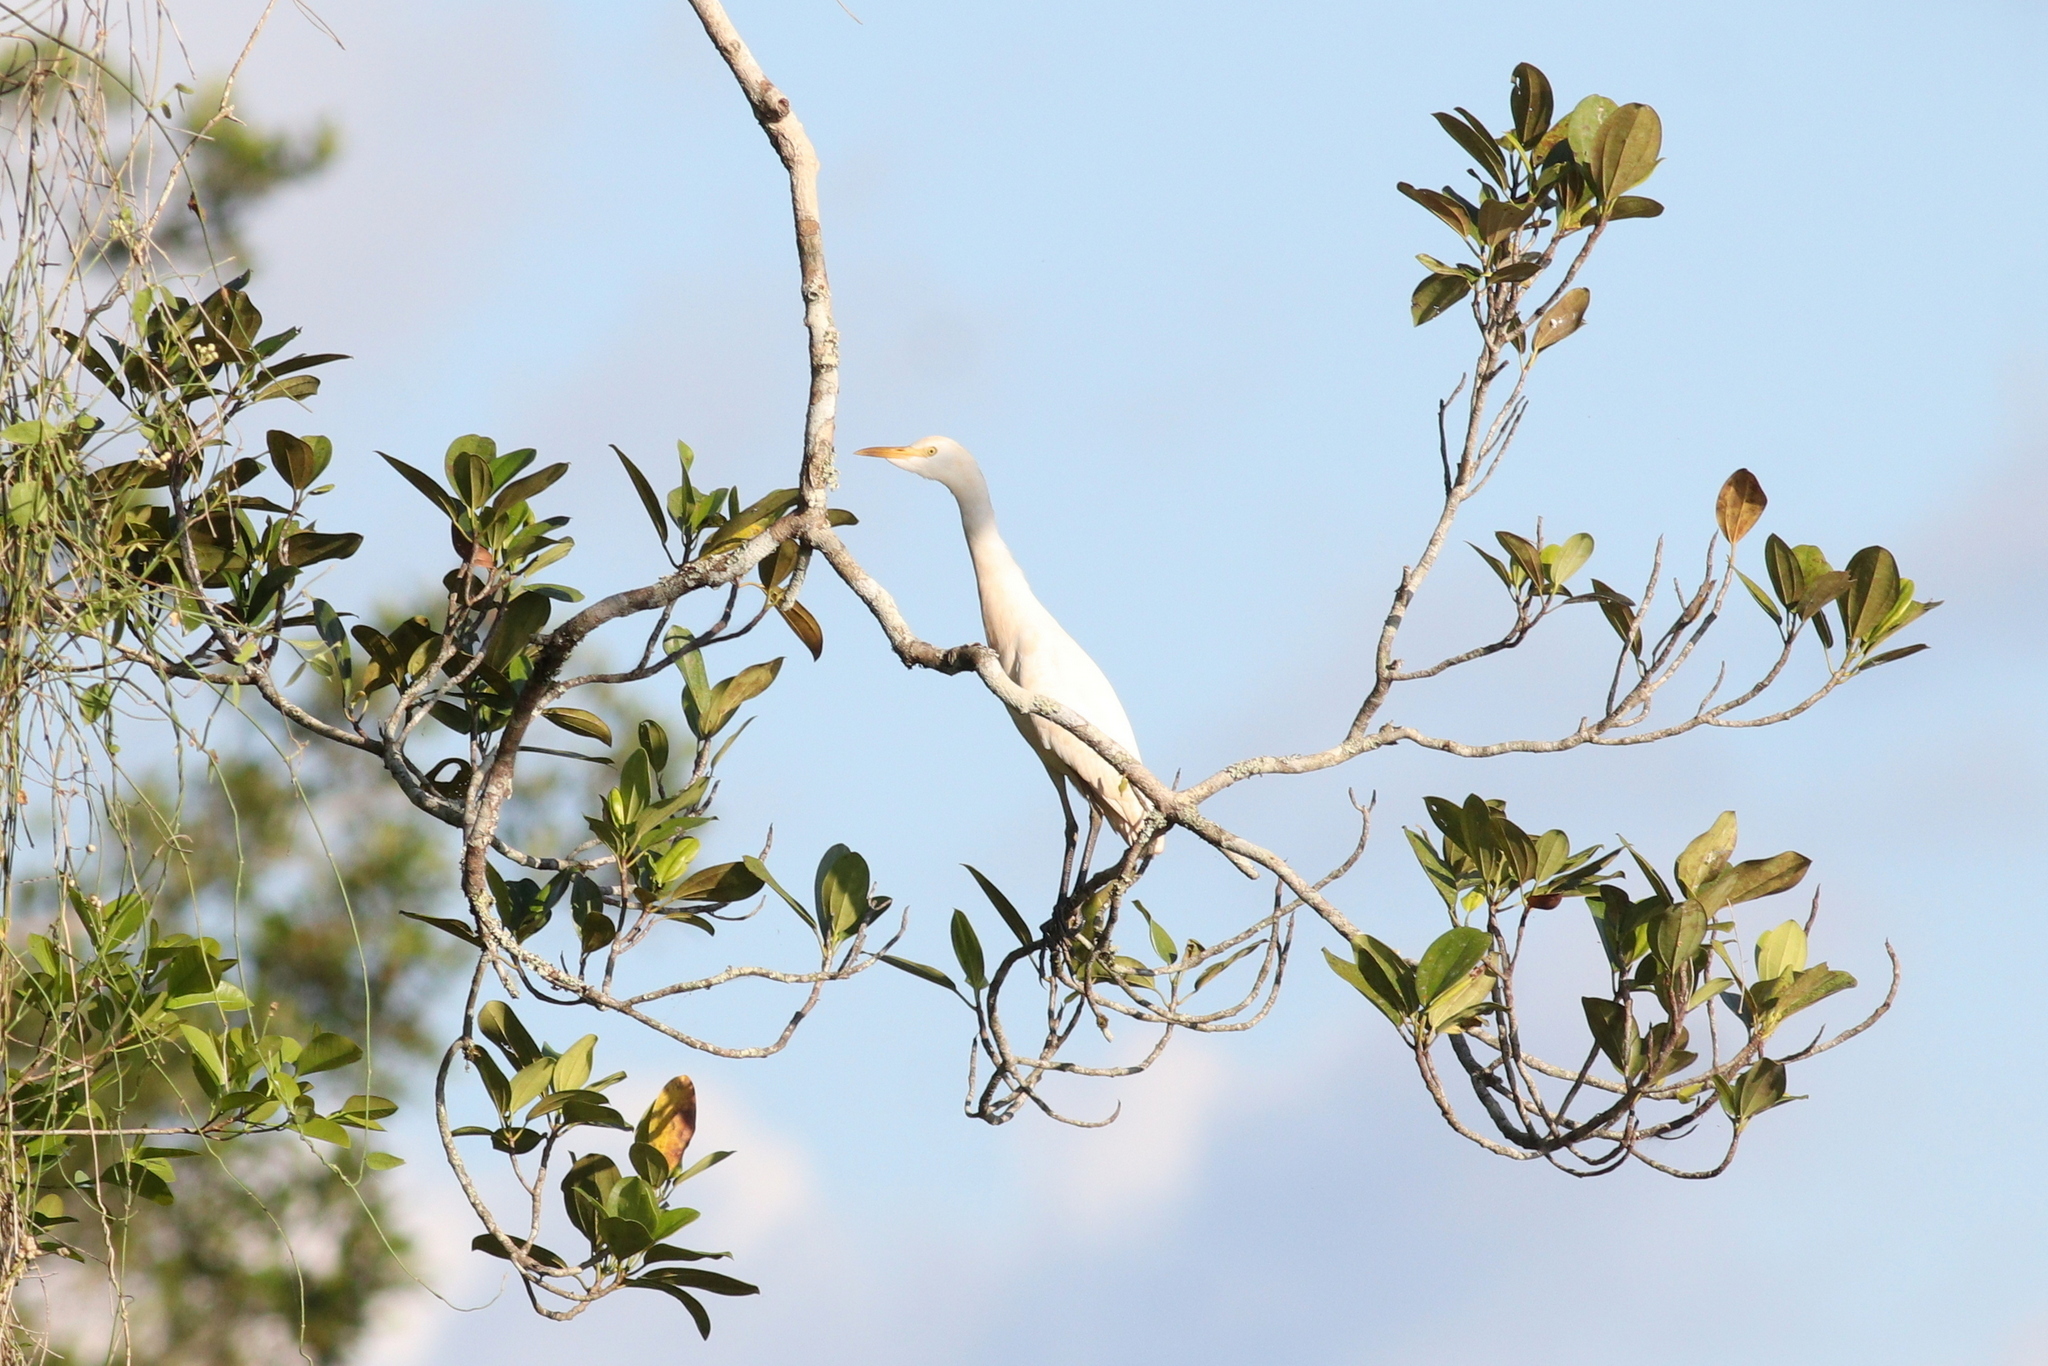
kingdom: Animalia
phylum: Chordata
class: Aves
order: Pelecaniformes
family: Ardeidae
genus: Bubulcus
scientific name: Bubulcus ibis
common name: Cattle egret
